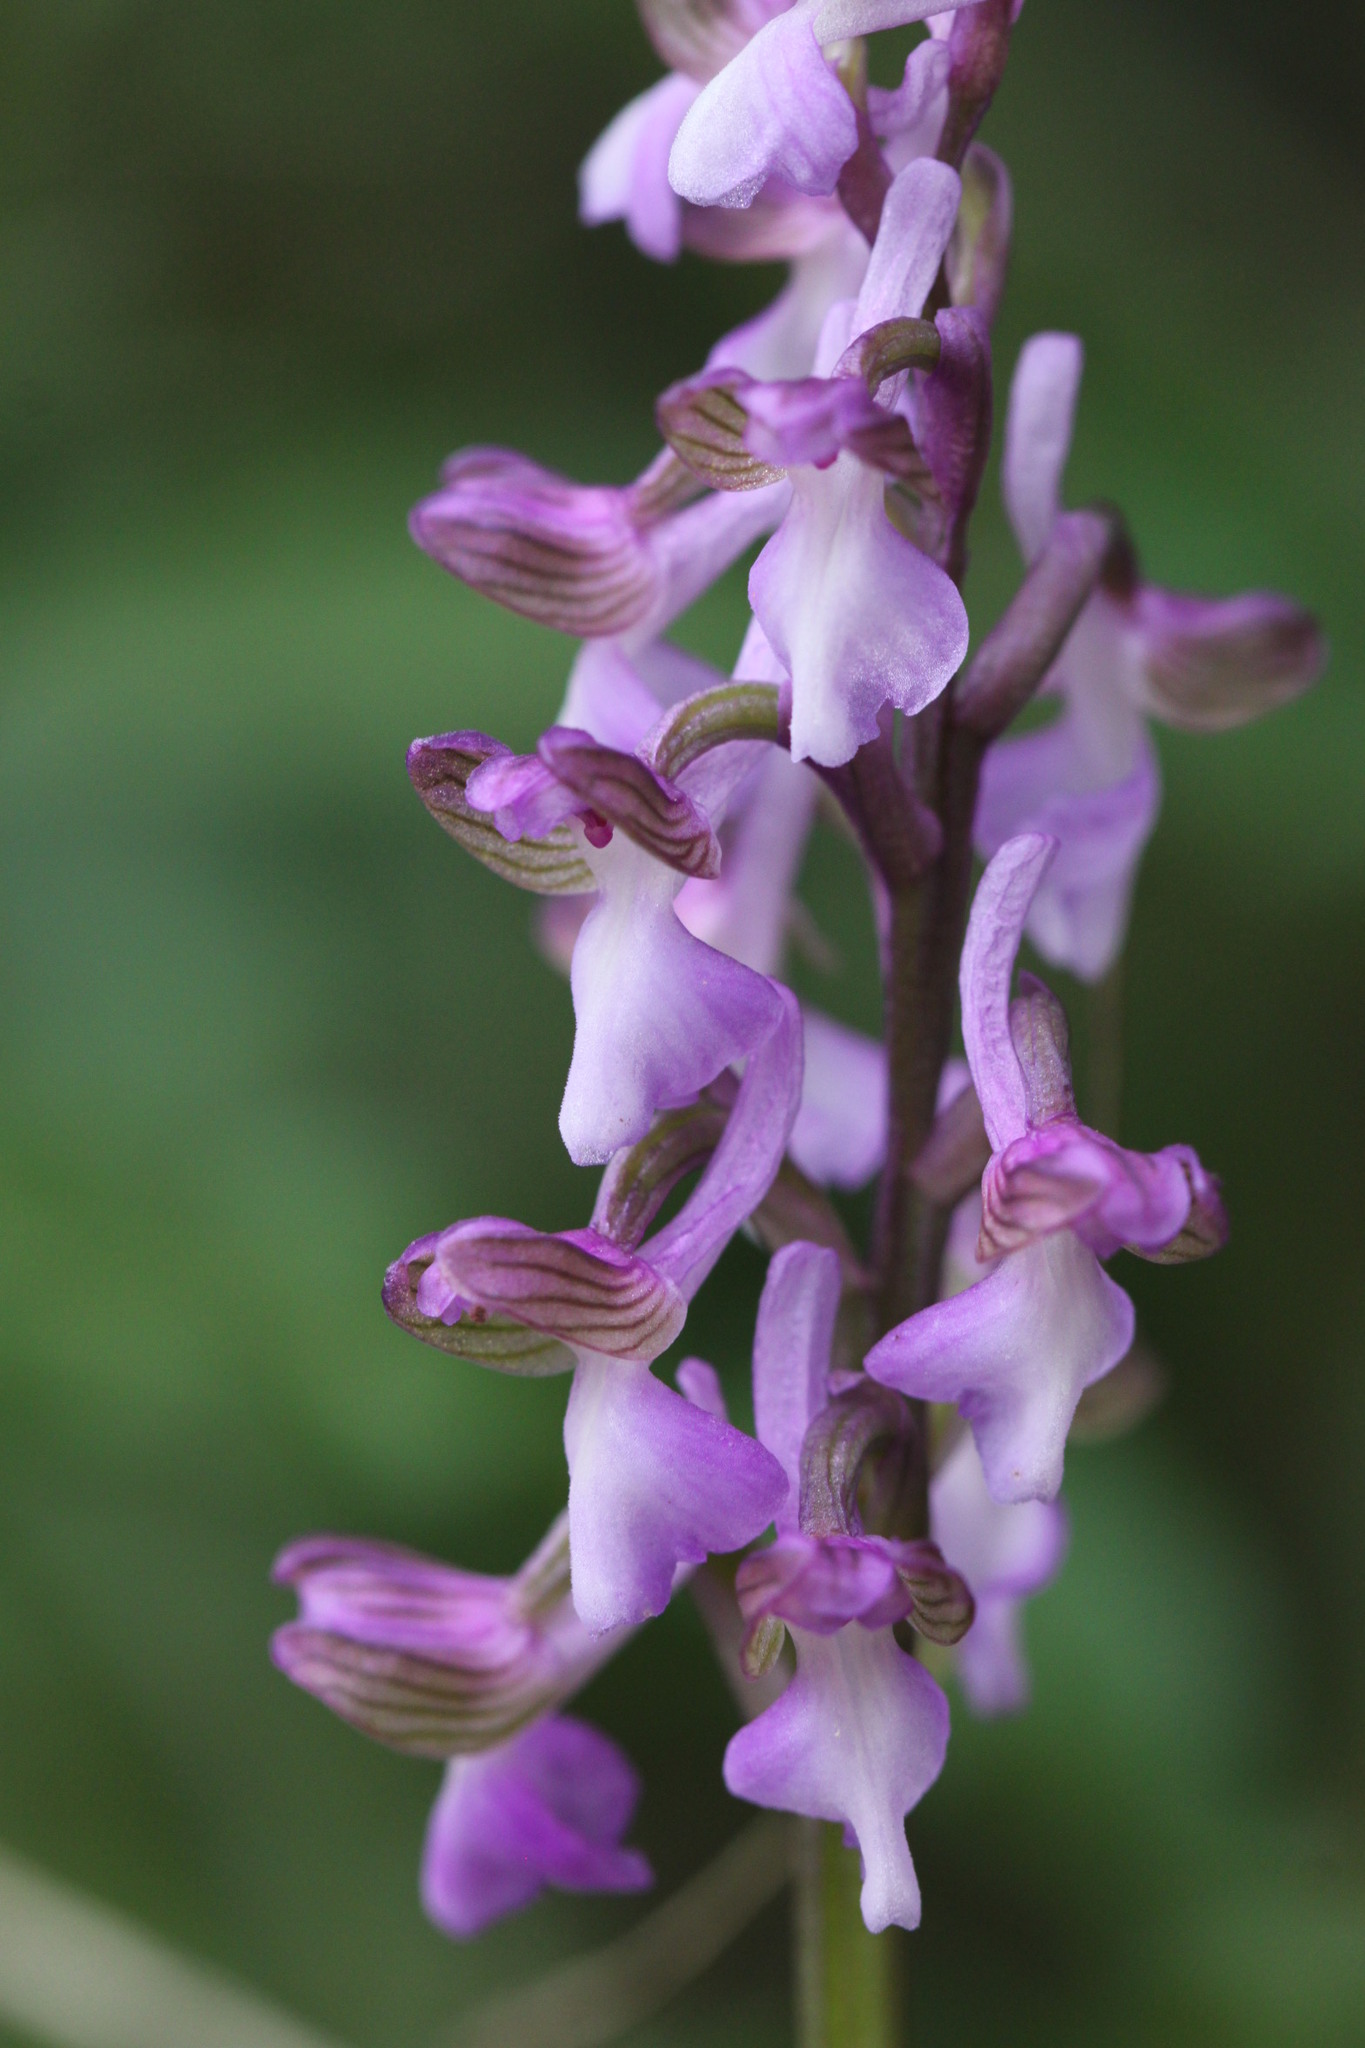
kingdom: Plantae
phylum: Tracheophyta
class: Liliopsida
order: Asparagales
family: Orchidaceae
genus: Anacamptis
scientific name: Anacamptis morio
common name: Green-winged orchid
